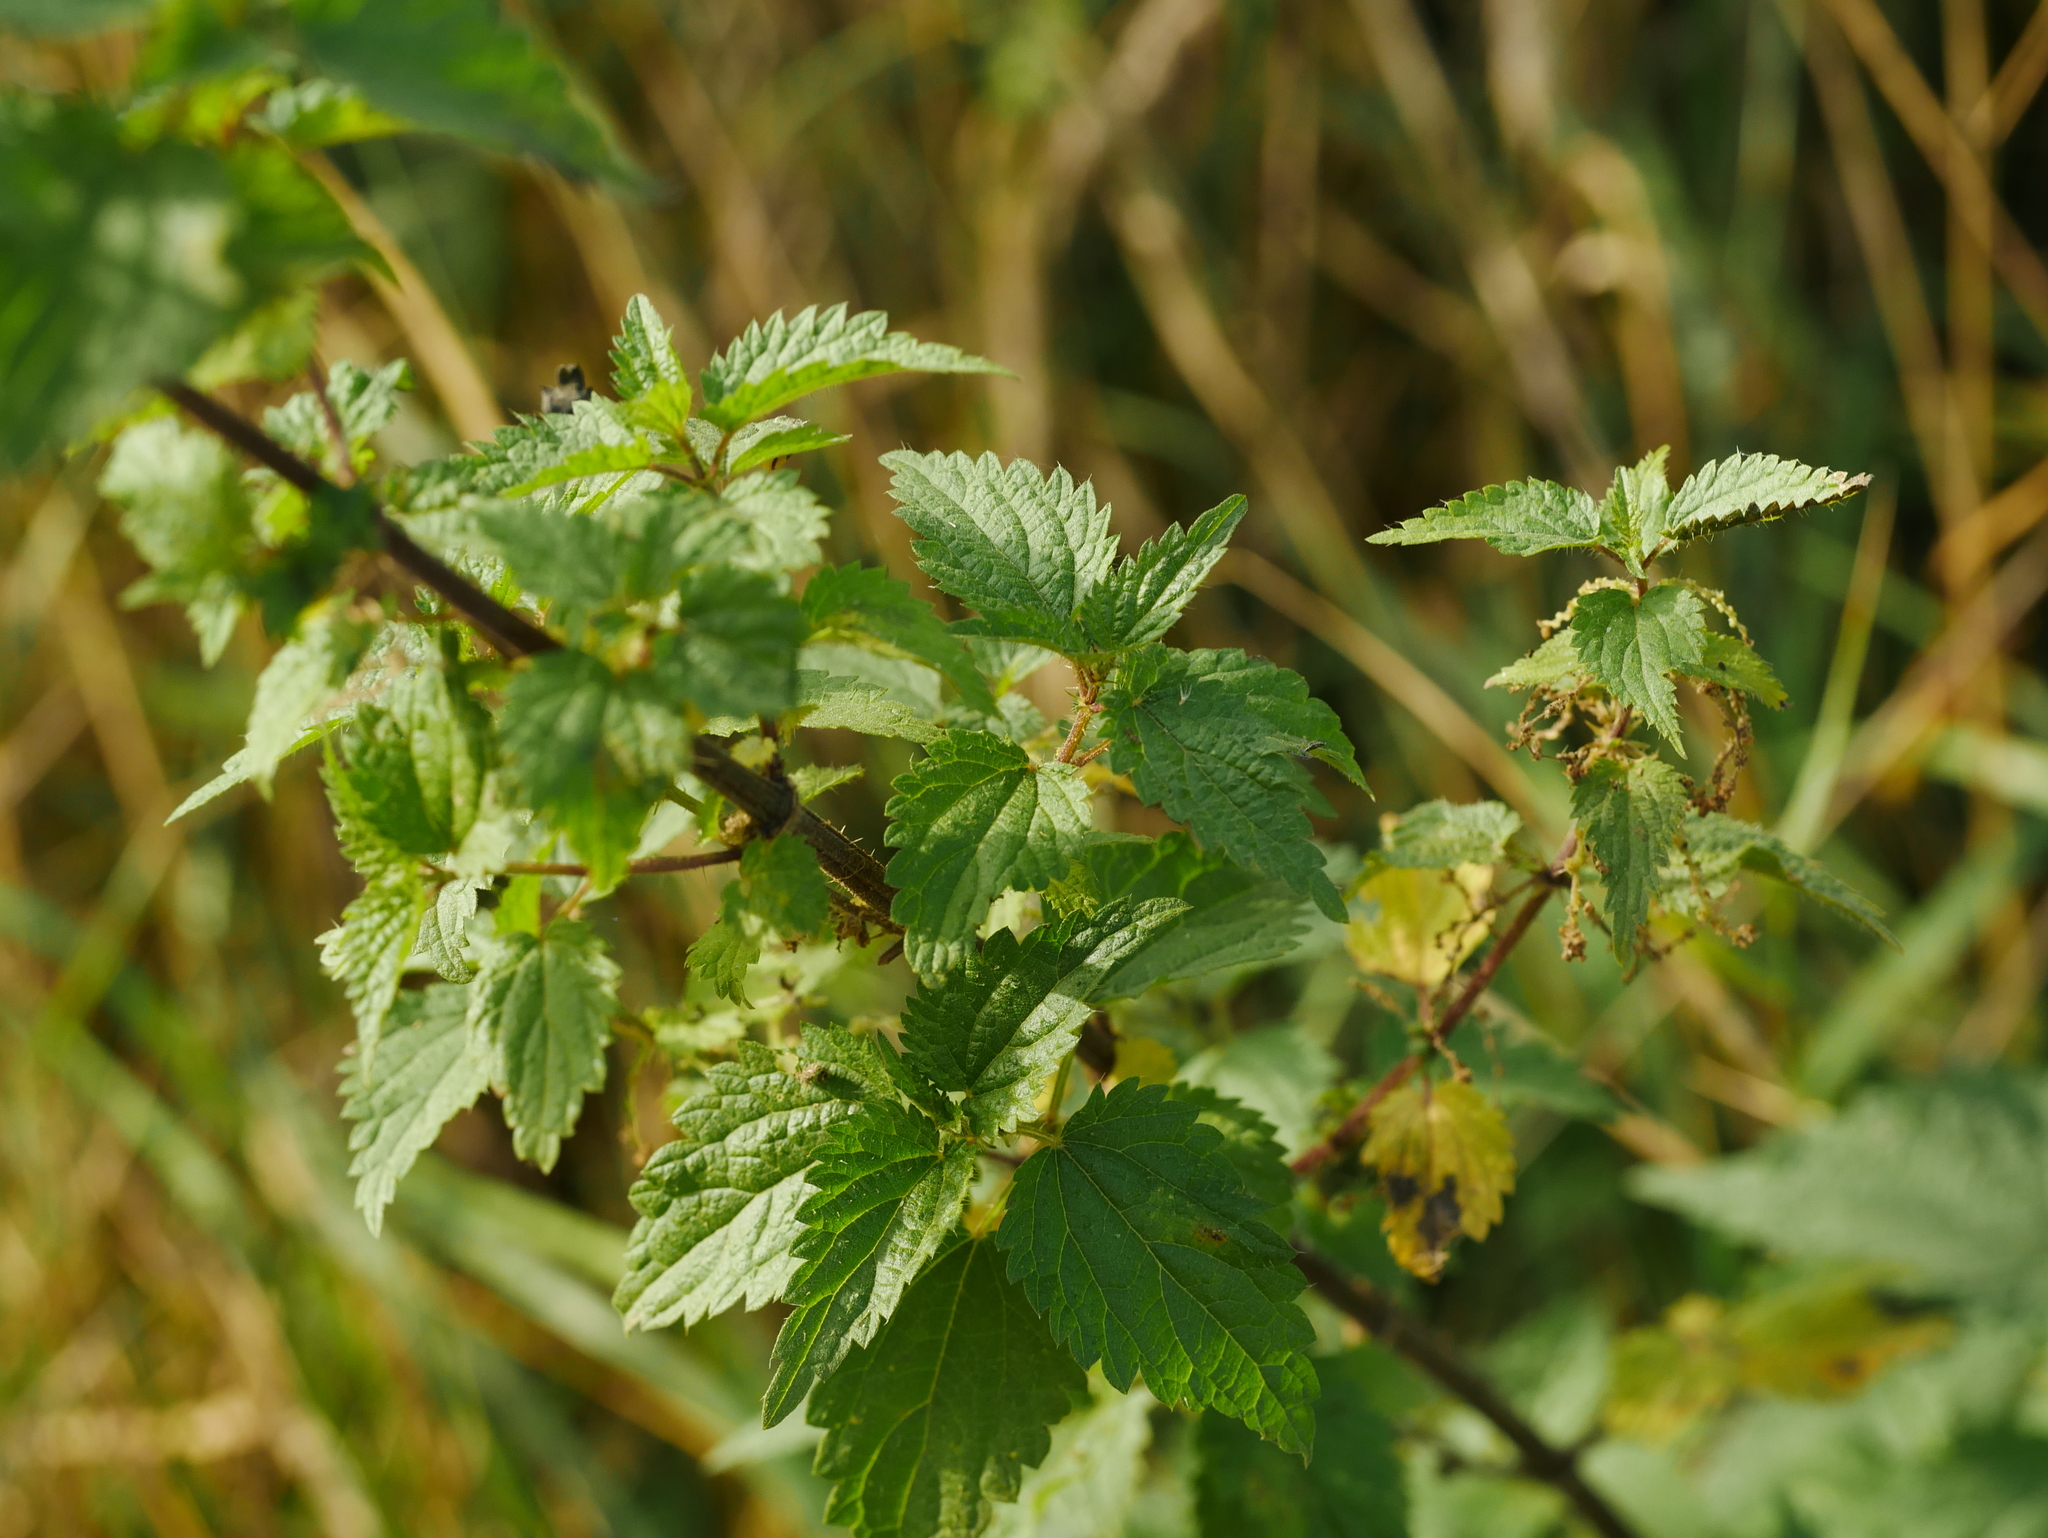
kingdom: Plantae
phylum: Tracheophyta
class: Magnoliopsida
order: Rosales
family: Urticaceae
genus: Urtica
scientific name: Urtica dioica
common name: Common nettle
